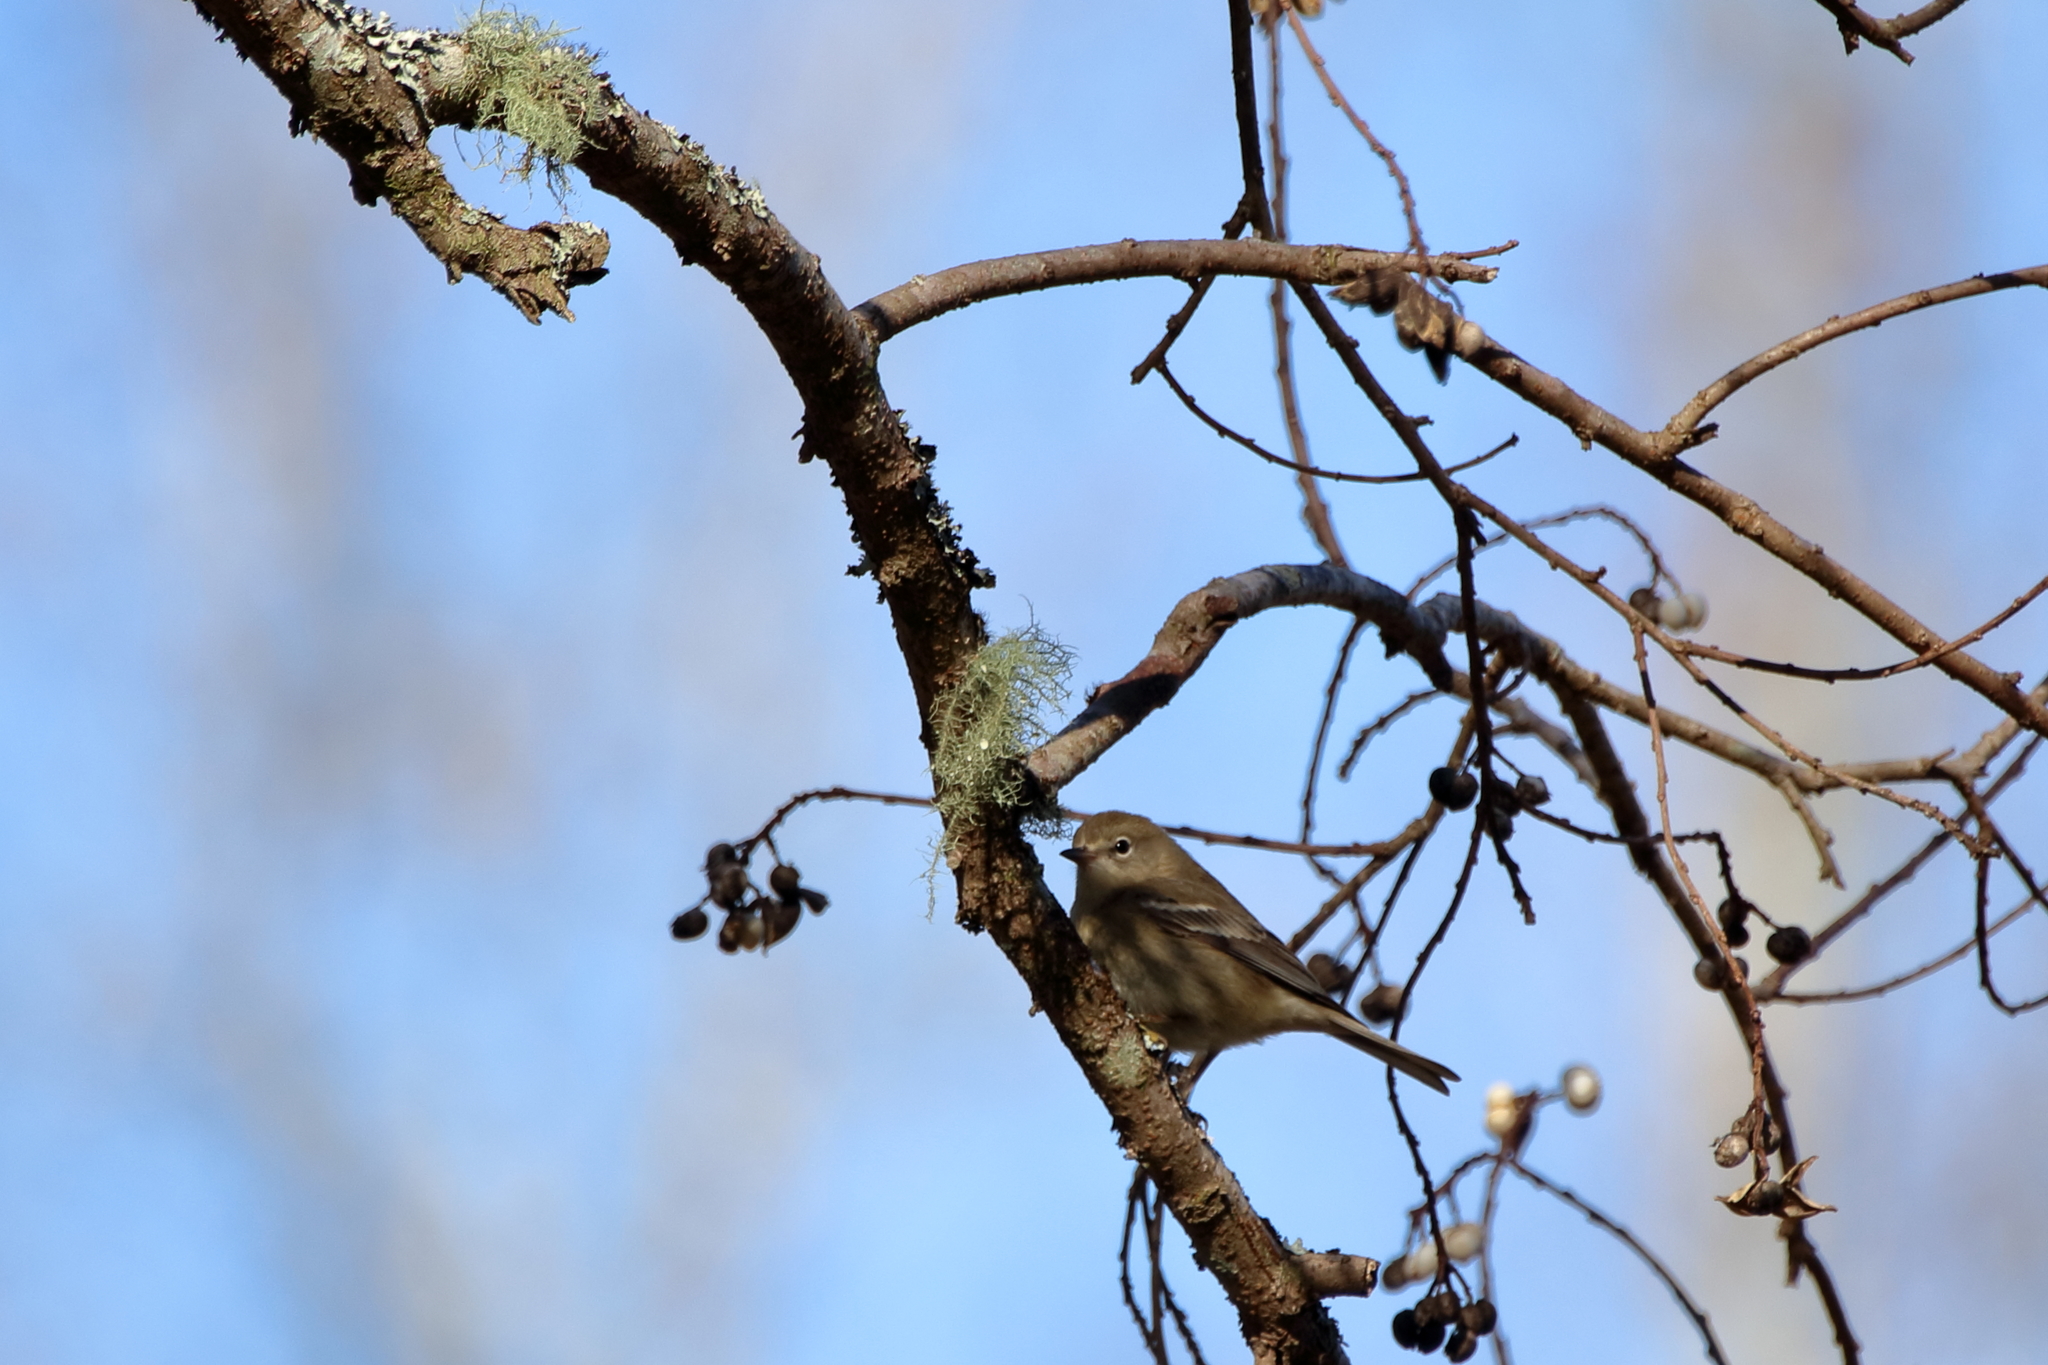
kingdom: Animalia
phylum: Chordata
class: Aves
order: Passeriformes
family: Parulidae
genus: Setophaga
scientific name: Setophaga coronata
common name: Myrtle warbler
